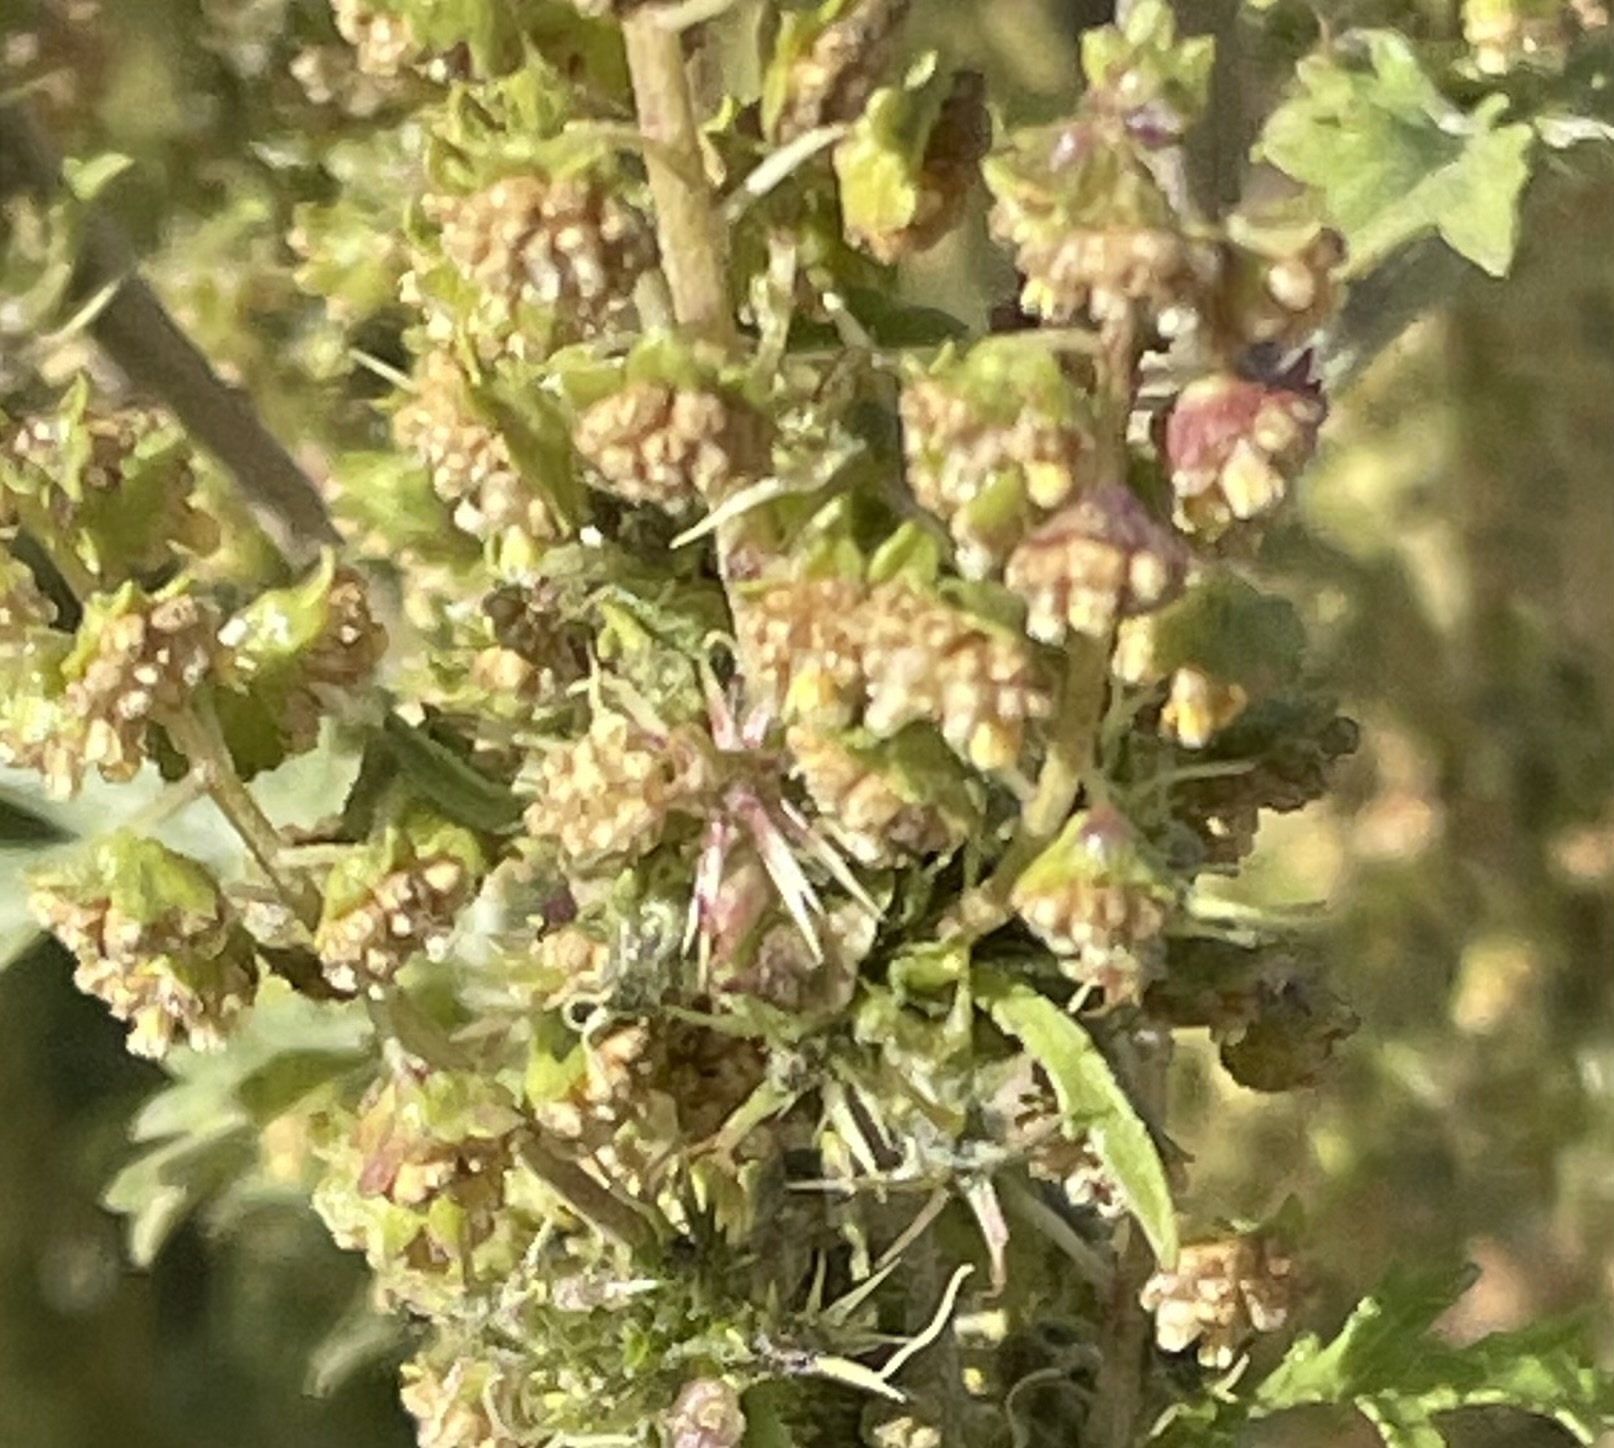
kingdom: Plantae
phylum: Tracheophyta
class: Magnoliopsida
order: Asterales
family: Asteraceae
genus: Ambrosia
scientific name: Ambrosia acanthicarpa
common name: Hooker's bur ragweed
